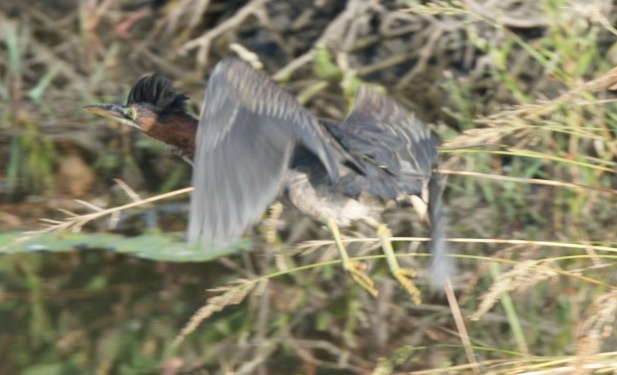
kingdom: Animalia
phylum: Chordata
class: Aves
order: Pelecaniformes
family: Ardeidae
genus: Butorides
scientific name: Butorides virescens
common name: Green heron
